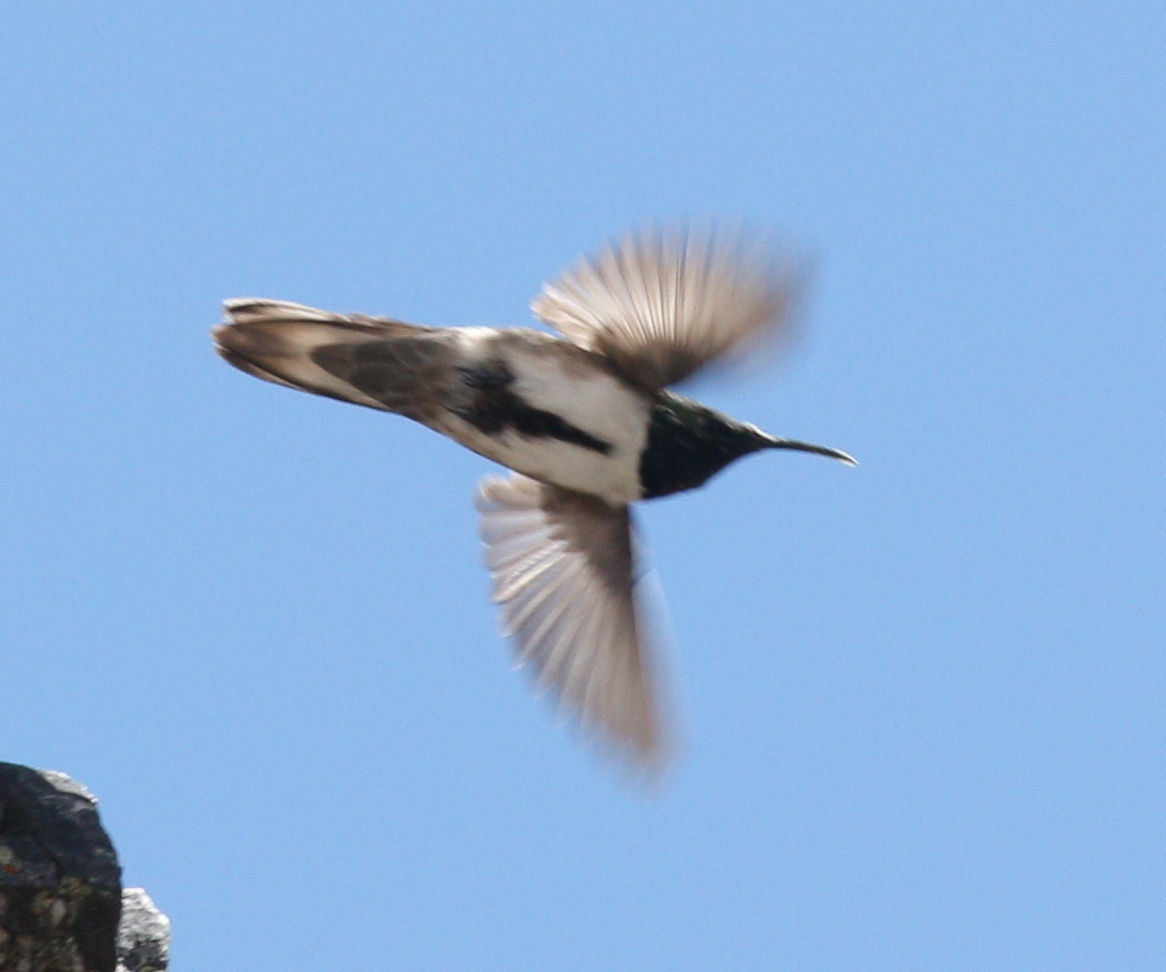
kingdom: Animalia
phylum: Chordata
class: Aves
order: Apodiformes
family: Trochilidae
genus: Oreotrochilus
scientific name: Oreotrochilus stolzmanni
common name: Green-headed hillstar
